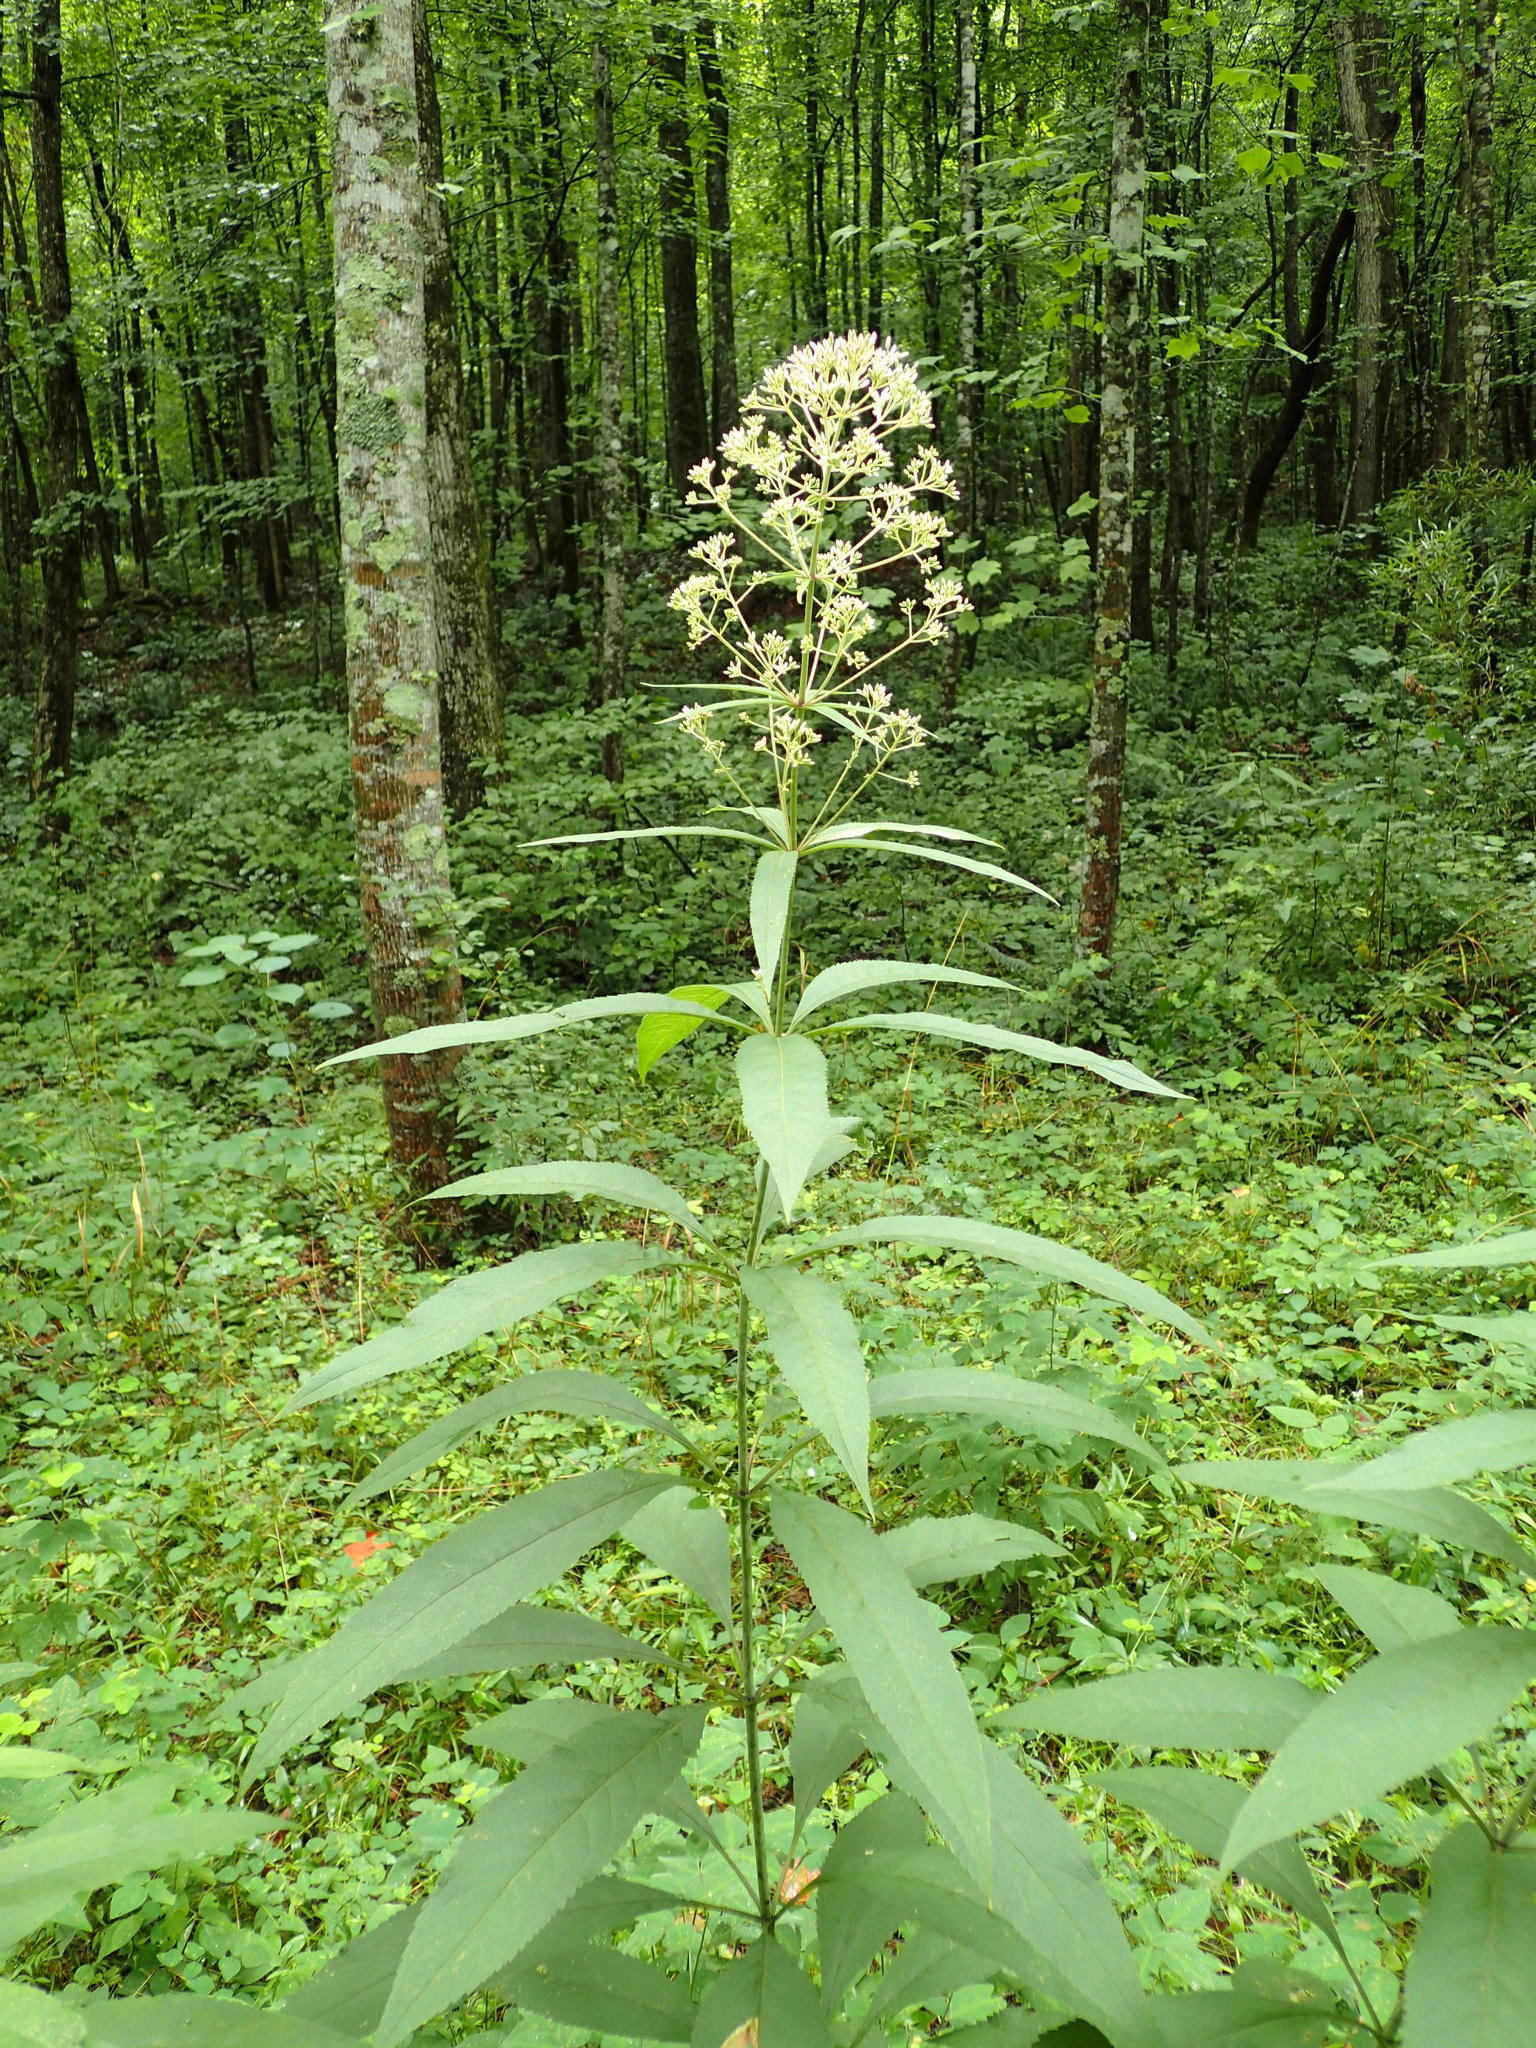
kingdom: Plantae
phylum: Tracheophyta
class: Magnoliopsida
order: Asterales
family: Asteraceae
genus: Eutrochium
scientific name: Eutrochium purpureum
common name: Gravelroot
